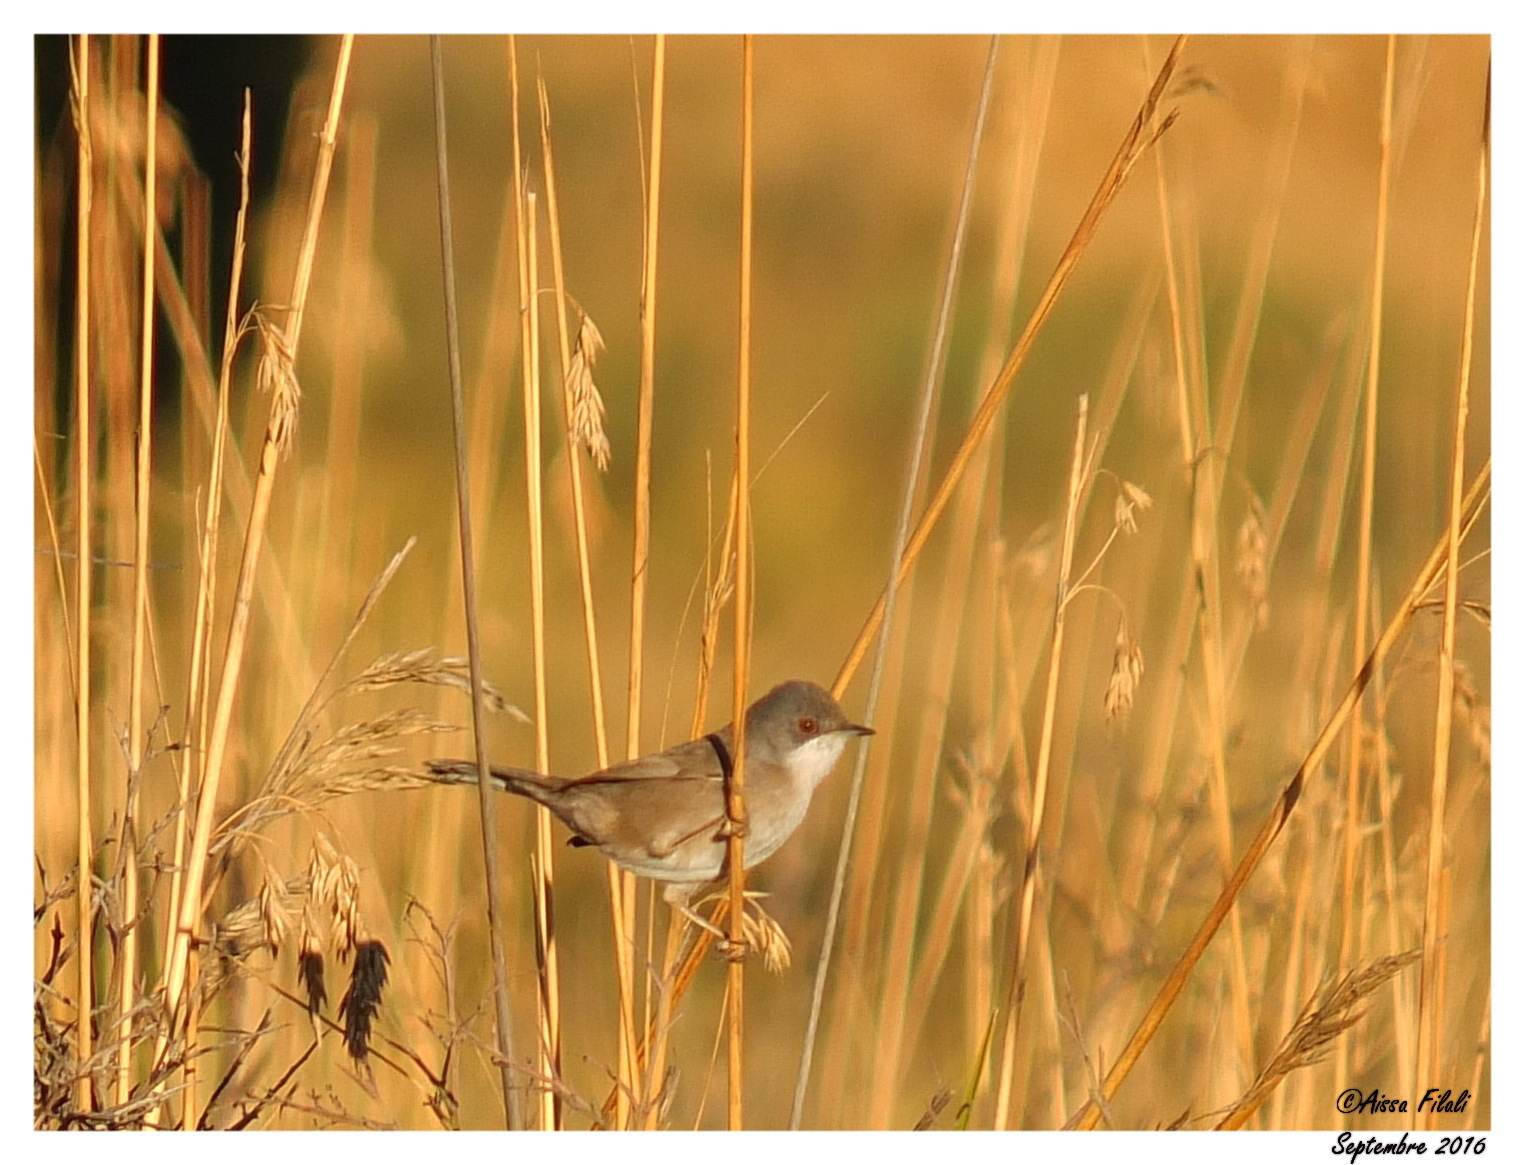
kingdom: Animalia
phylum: Chordata
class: Aves
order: Passeriformes
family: Sylviidae
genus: Curruca
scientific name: Curruca melanocephala
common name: Sardinian warbler
